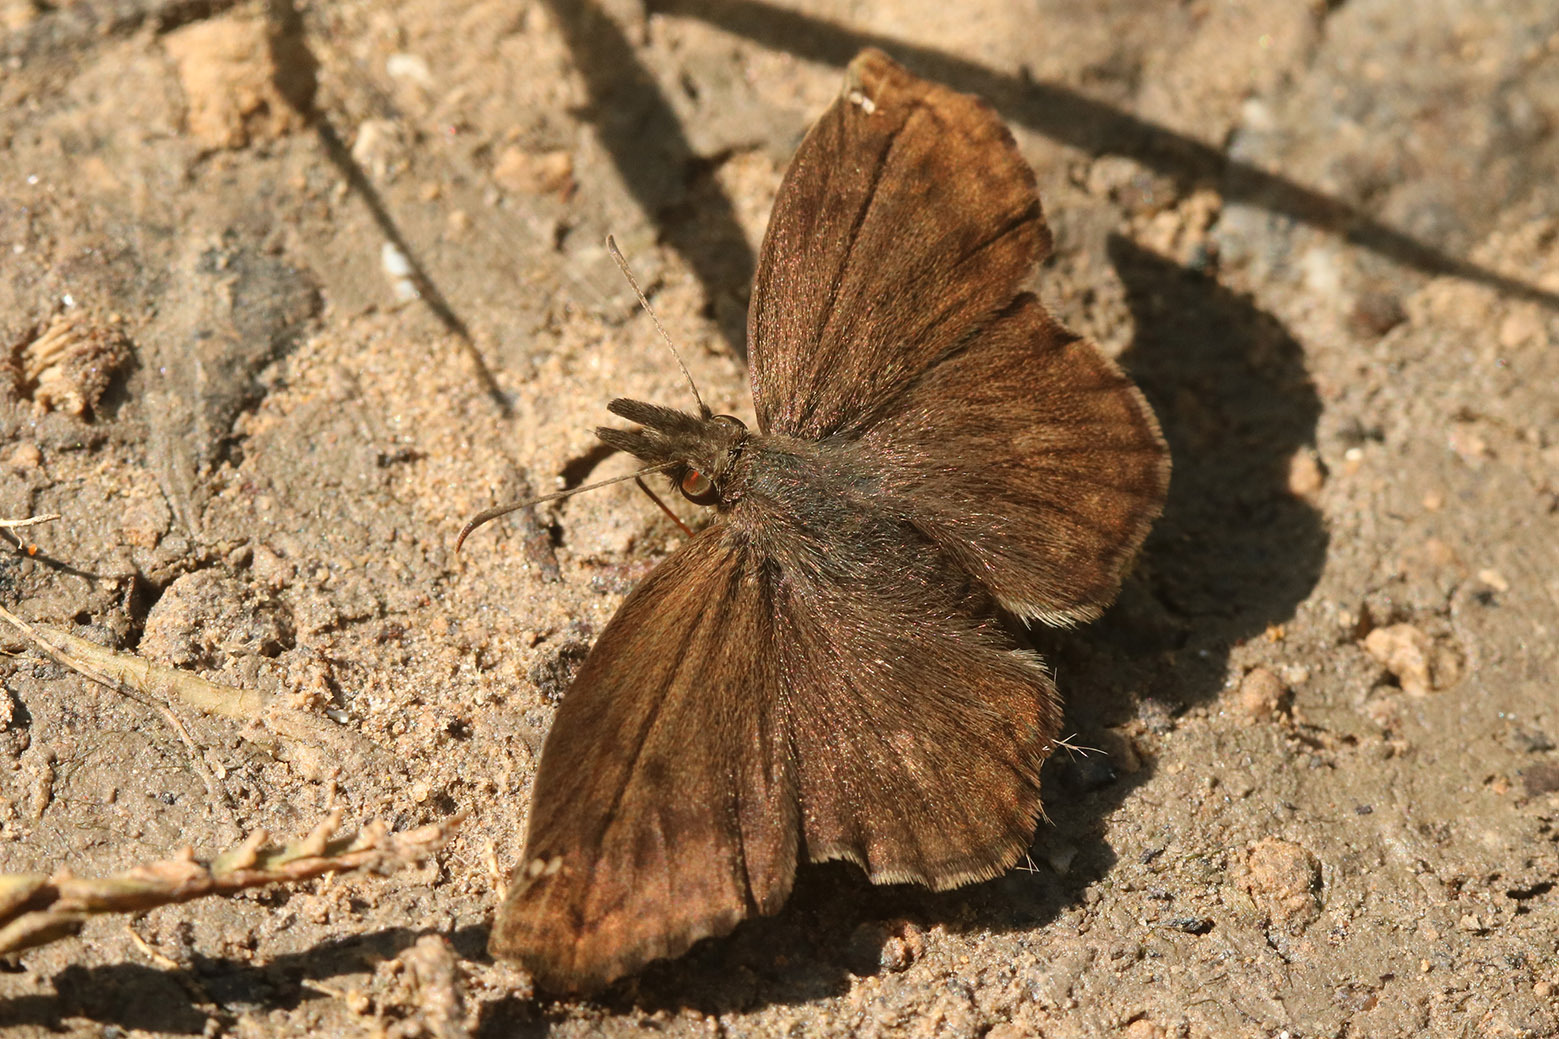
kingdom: Animalia
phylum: Arthropoda
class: Insecta
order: Lepidoptera
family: Hesperiidae
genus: Anisochoria
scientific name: Anisochoria sublimbata
